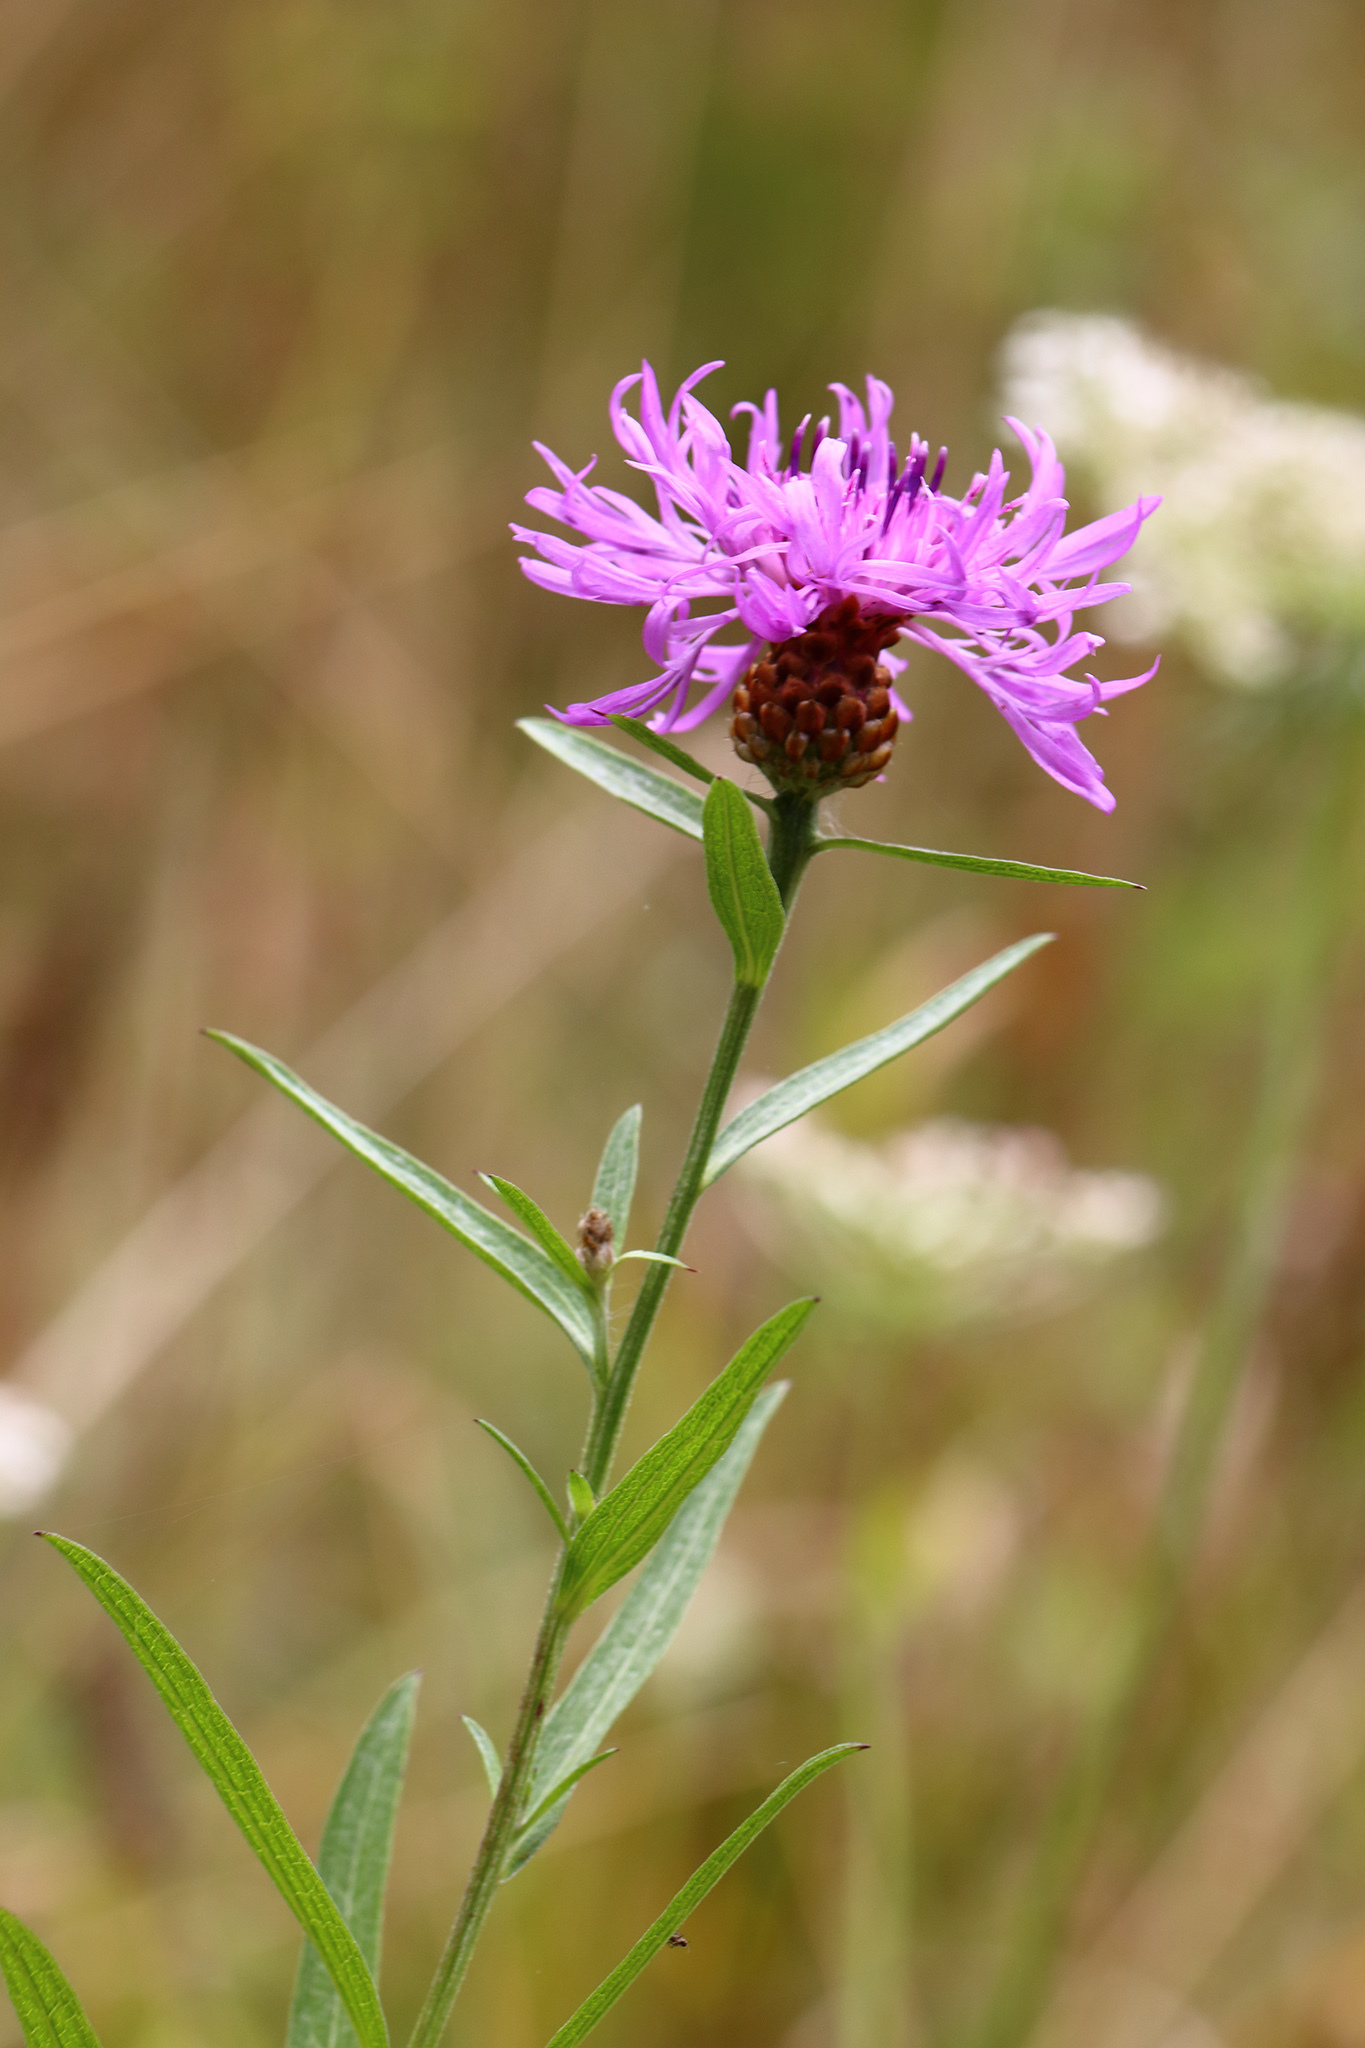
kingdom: Plantae
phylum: Tracheophyta
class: Magnoliopsida
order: Asterales
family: Asteraceae
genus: Centaurea
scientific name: Centaurea jacea
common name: Brown knapweed
